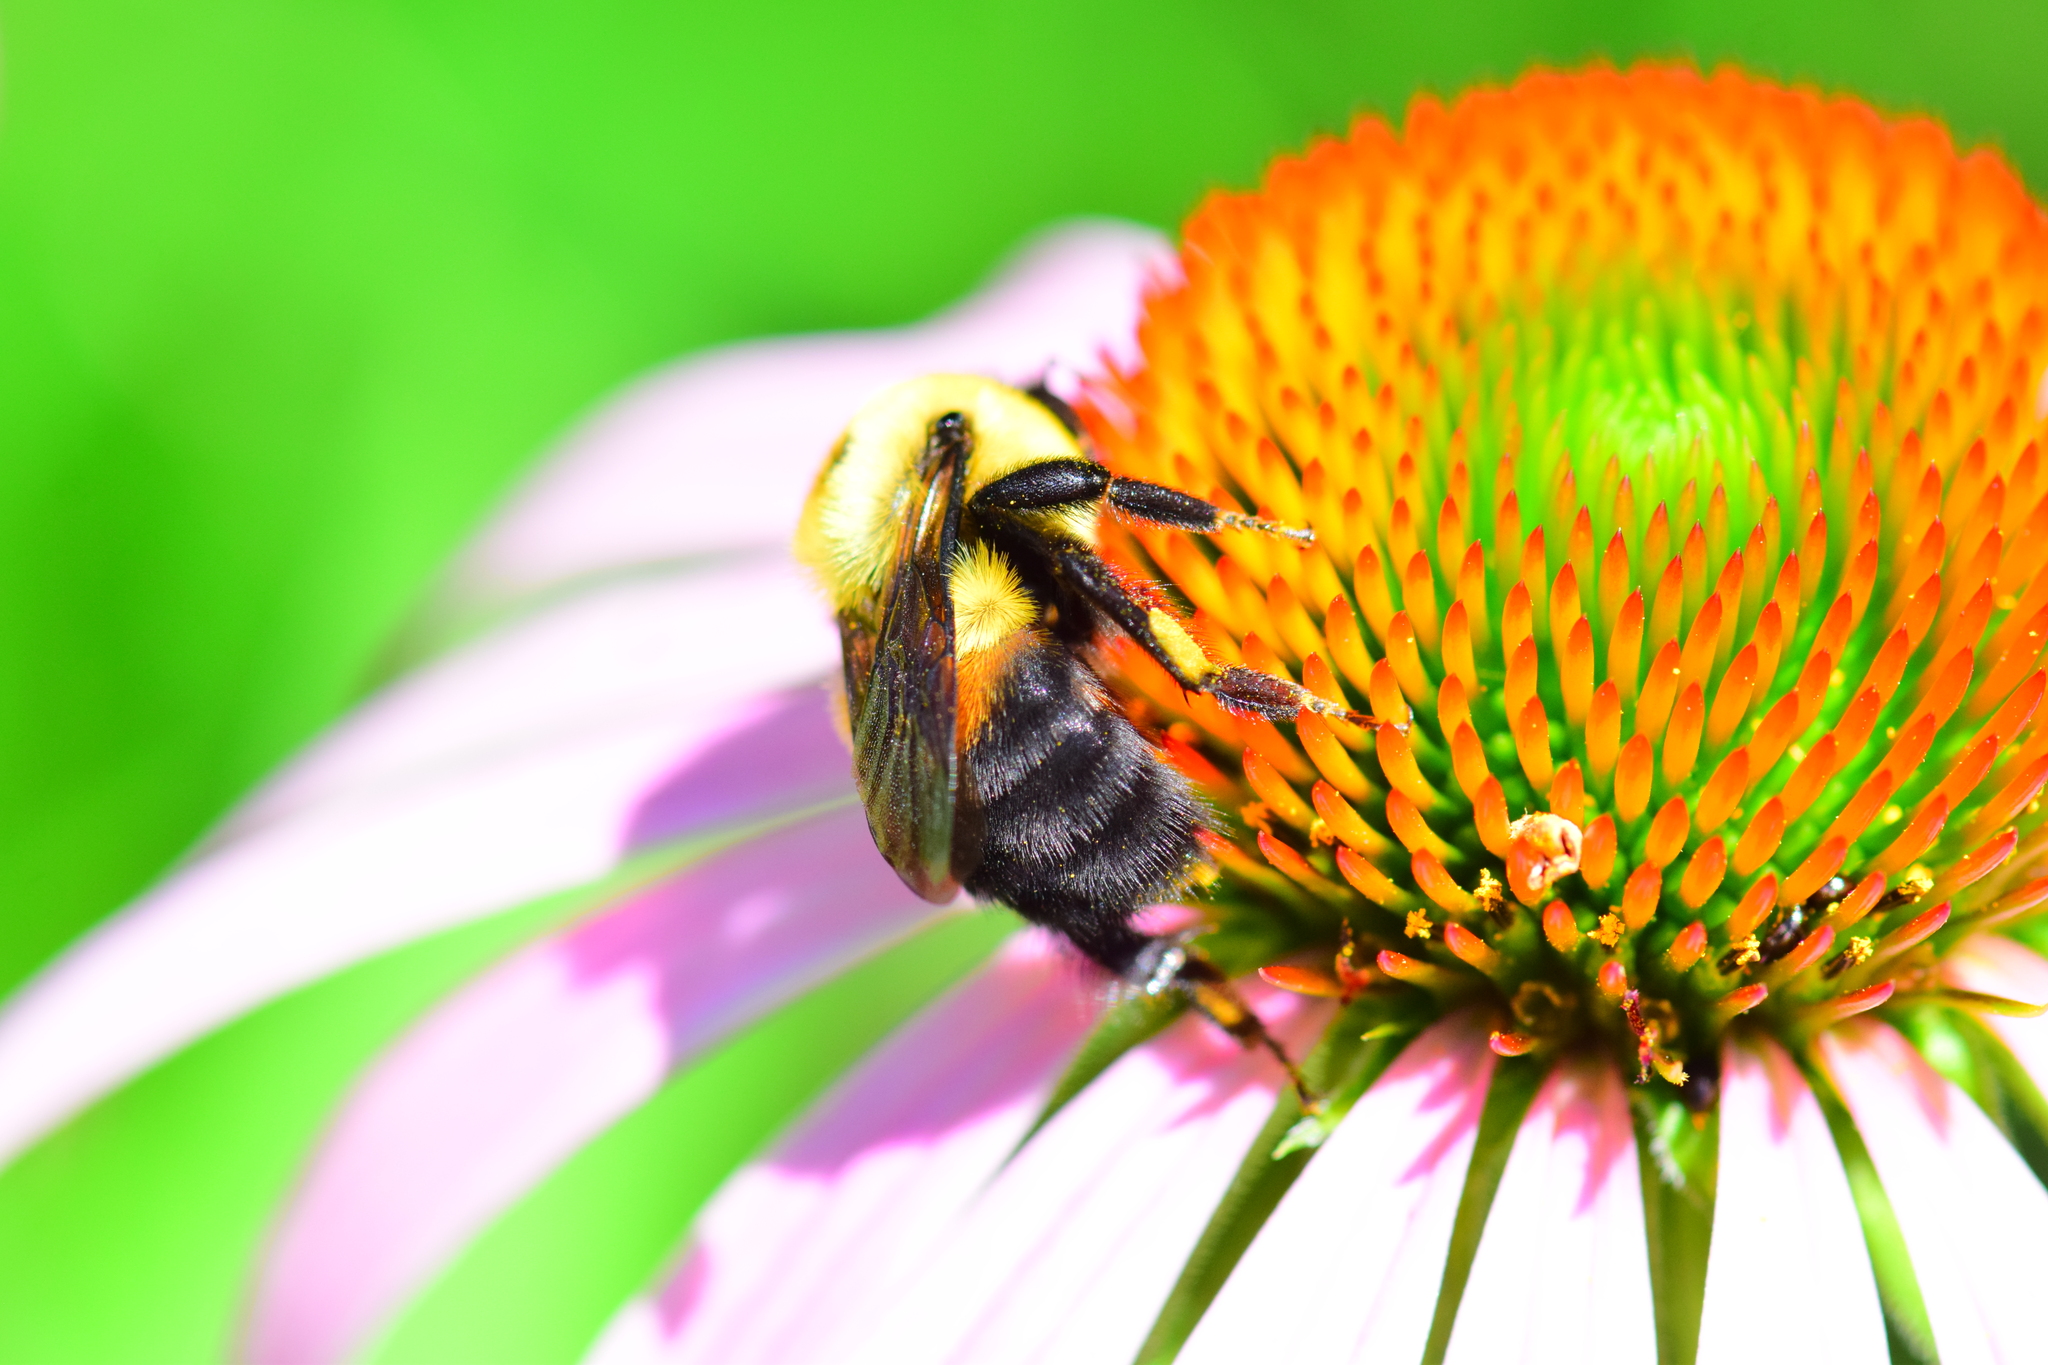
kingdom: Animalia
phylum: Arthropoda
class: Insecta
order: Hymenoptera
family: Apidae
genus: Bombus
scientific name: Bombus griseocollis
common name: Brown-belted bumble bee
